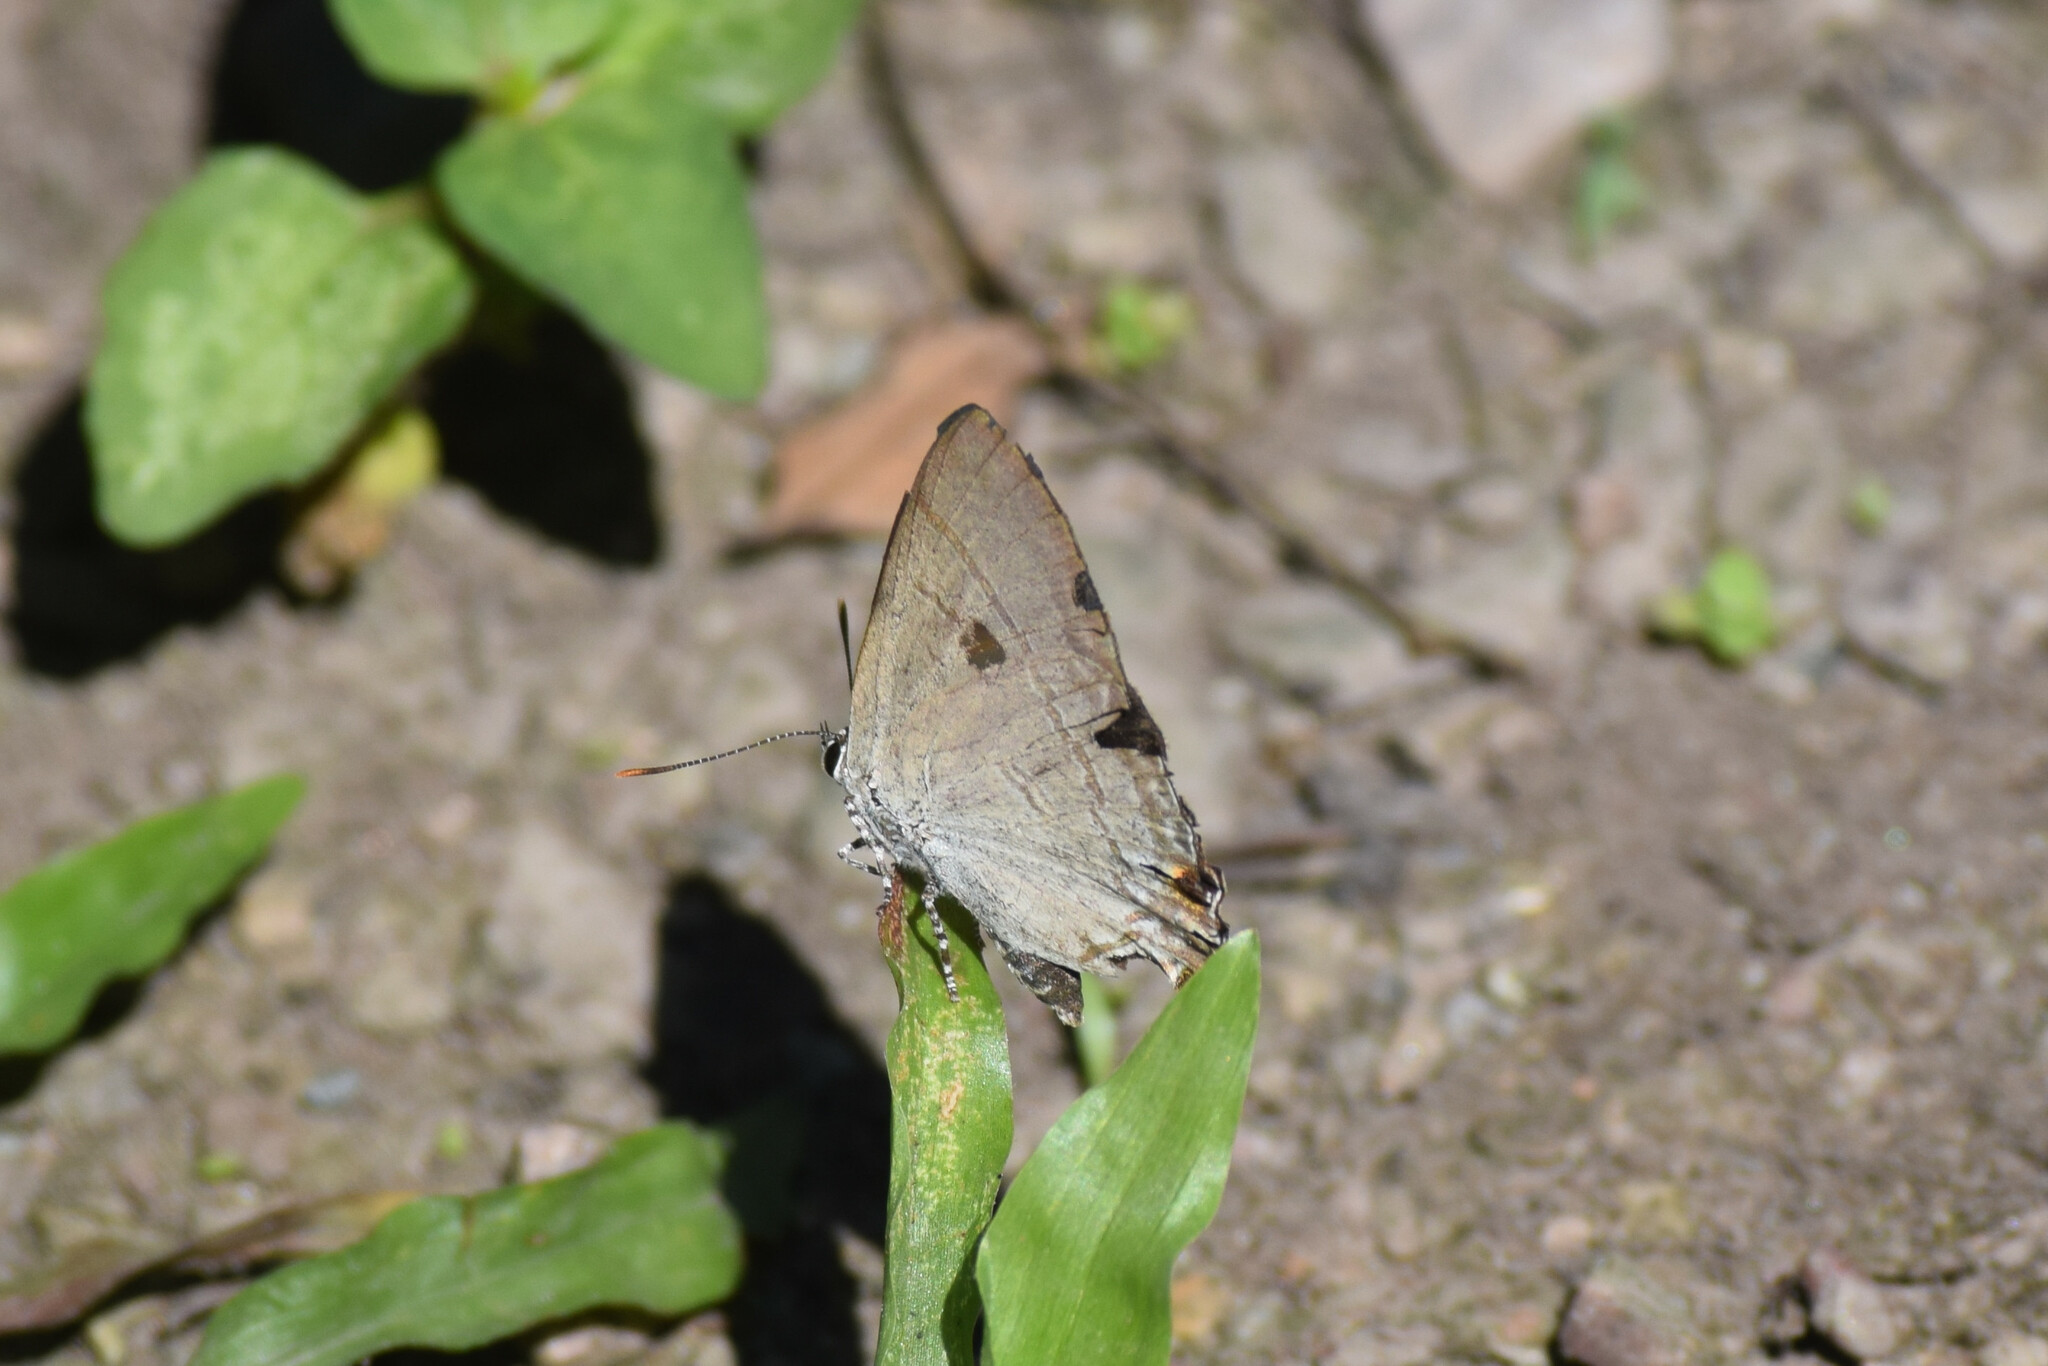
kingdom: Animalia
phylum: Arthropoda
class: Insecta
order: Lepidoptera
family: Lycaenidae
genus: Hypolycaena
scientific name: Hypolycaena erylus
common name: Common tit
